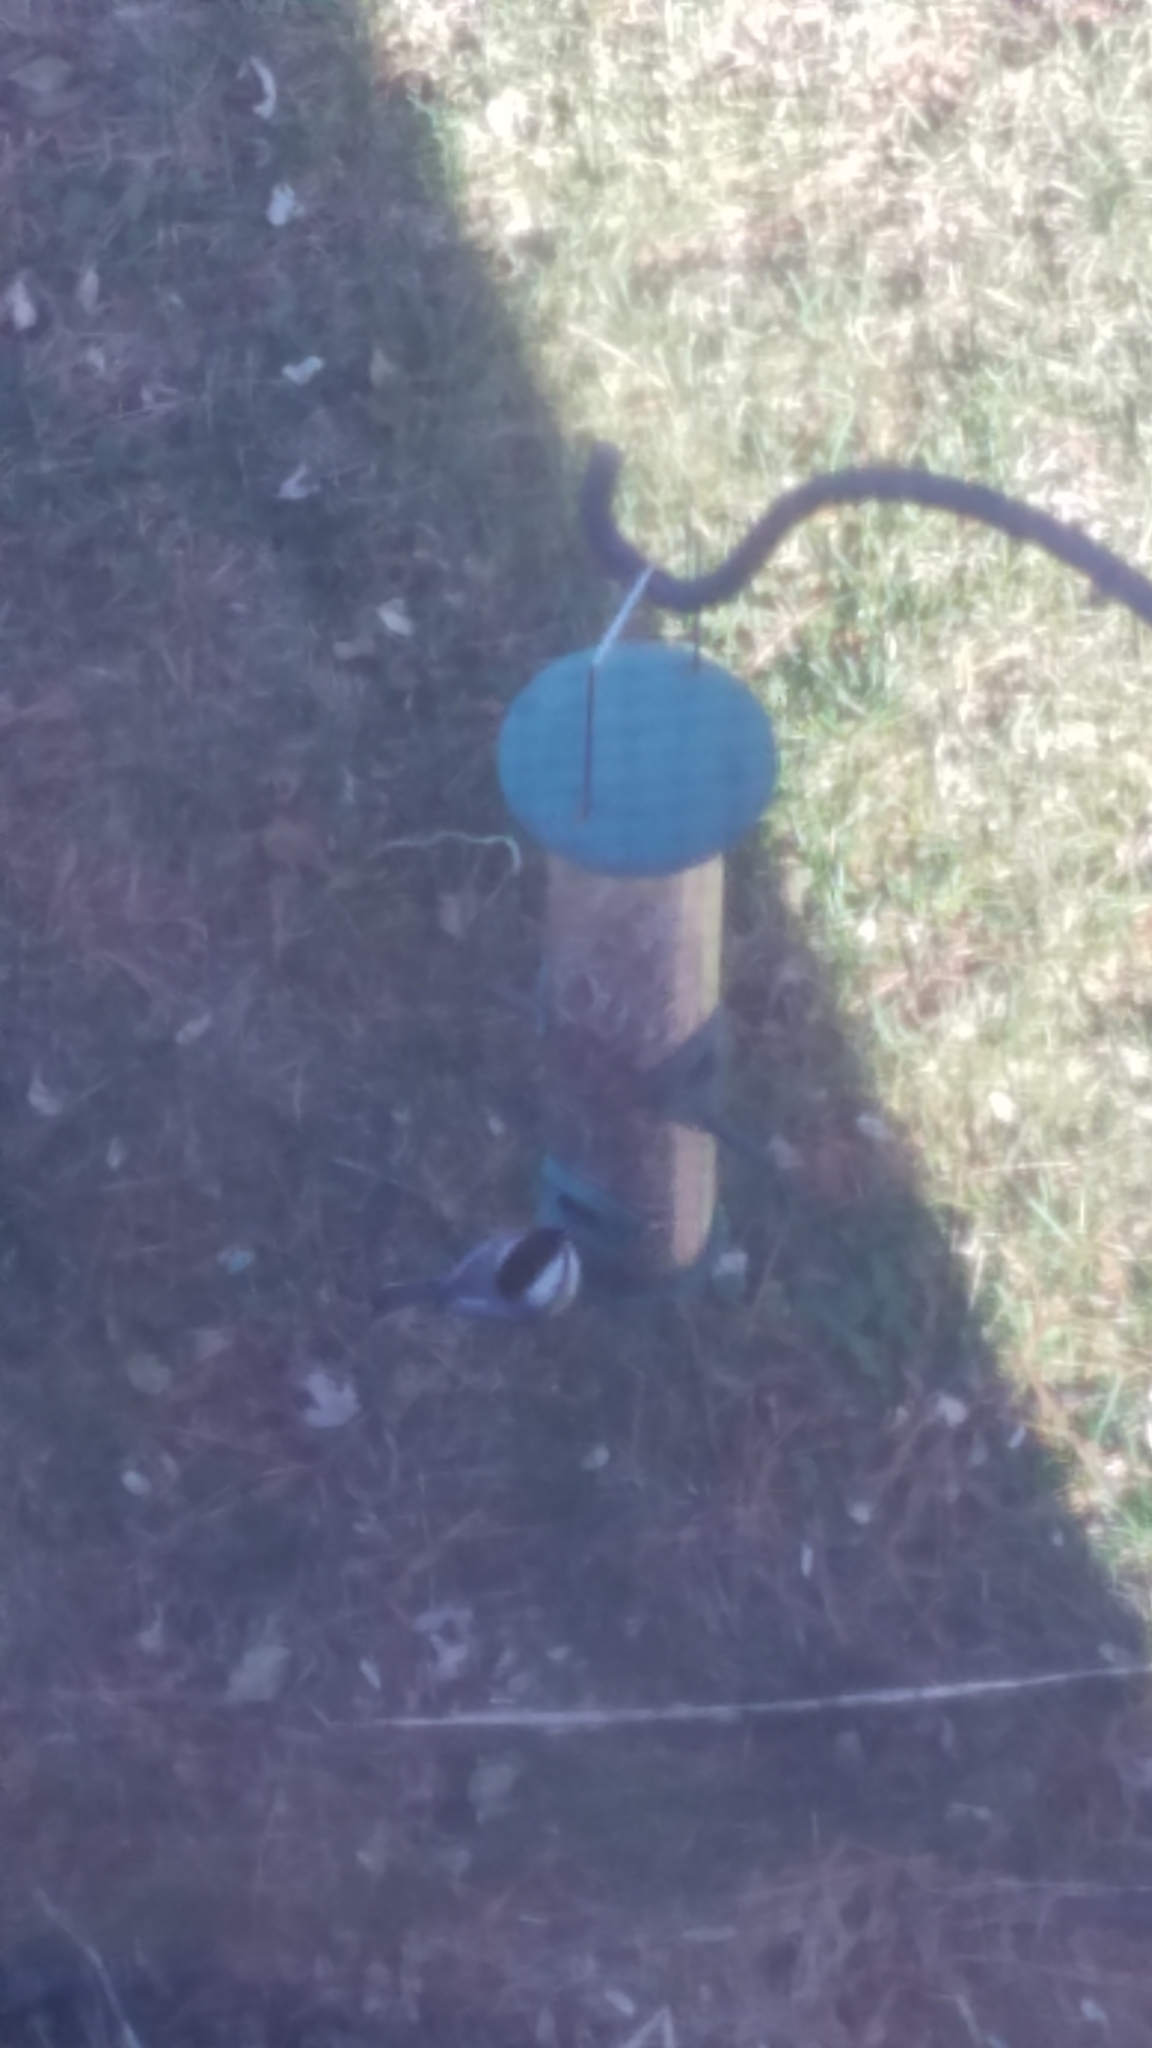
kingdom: Animalia
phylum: Chordata
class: Aves
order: Passeriformes
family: Paridae
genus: Poecile
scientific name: Poecile atricapillus
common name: Black-capped chickadee
